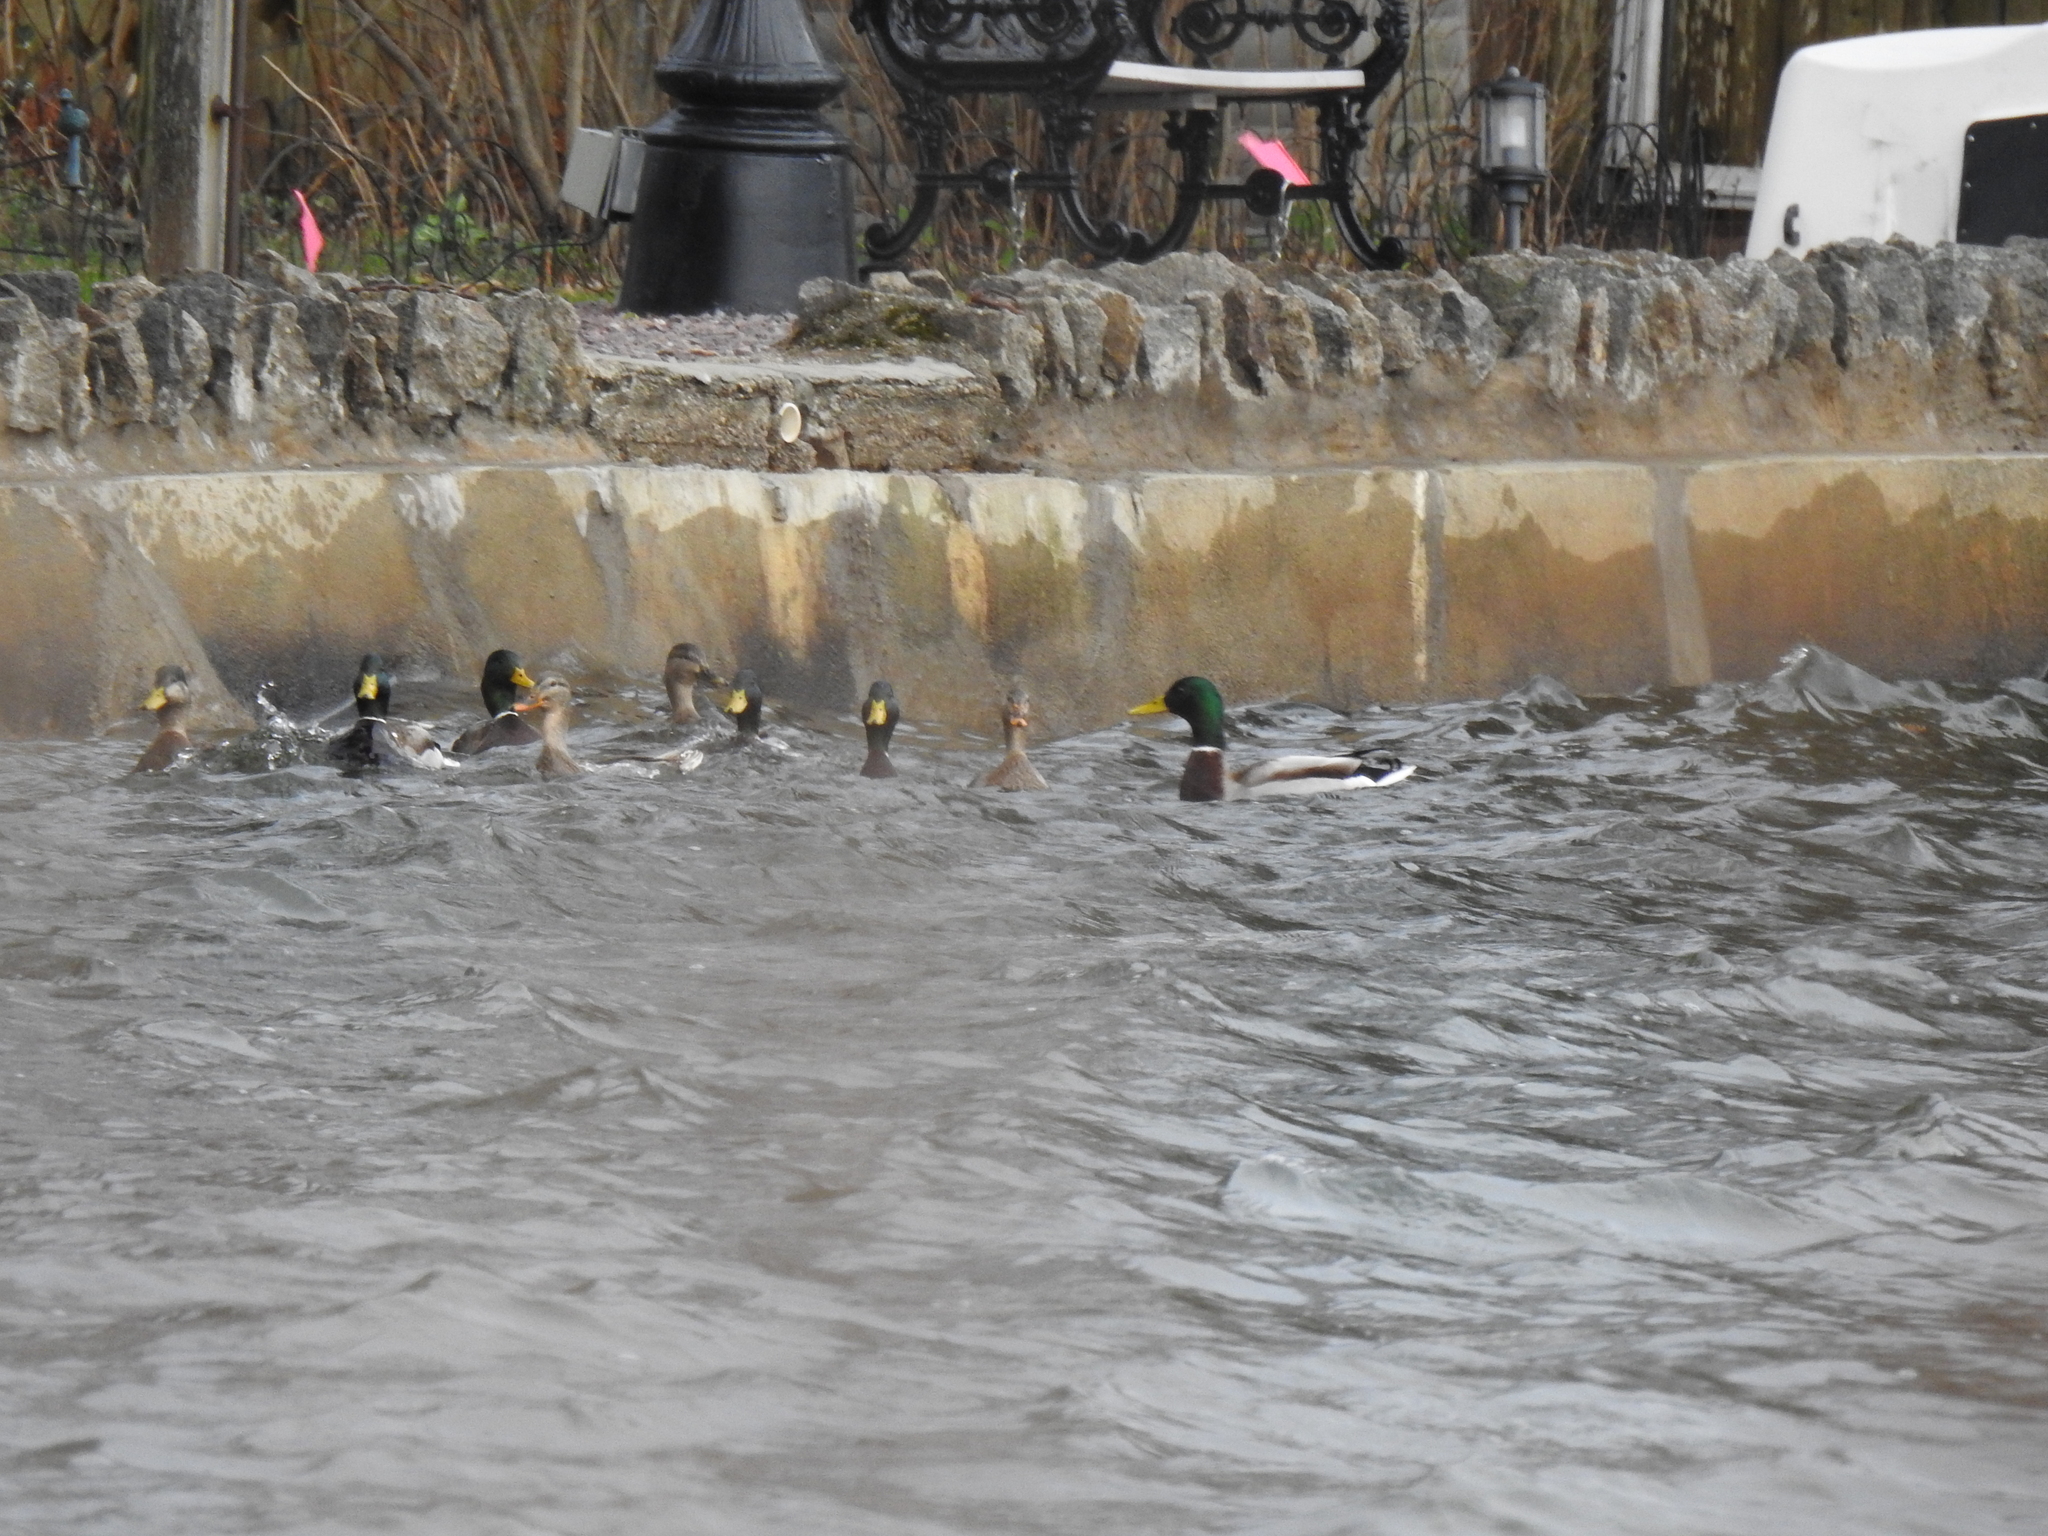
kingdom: Animalia
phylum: Chordata
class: Aves
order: Anseriformes
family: Anatidae
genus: Anas
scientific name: Anas platyrhynchos
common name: Mallard
